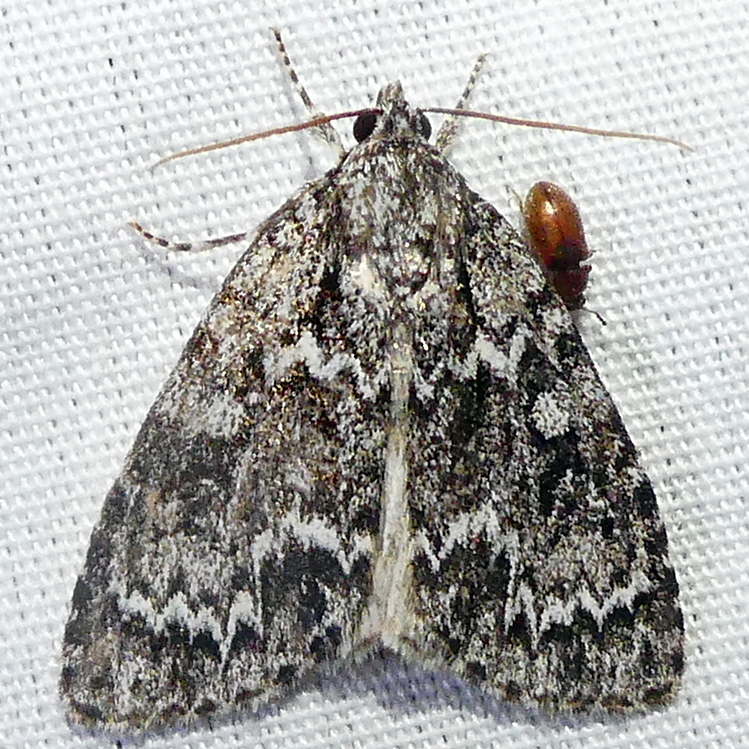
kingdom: Animalia
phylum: Arthropoda
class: Insecta
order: Lepidoptera
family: Noctuidae
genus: Acronicta
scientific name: Acronicta fragilis
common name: Fragile dagger
